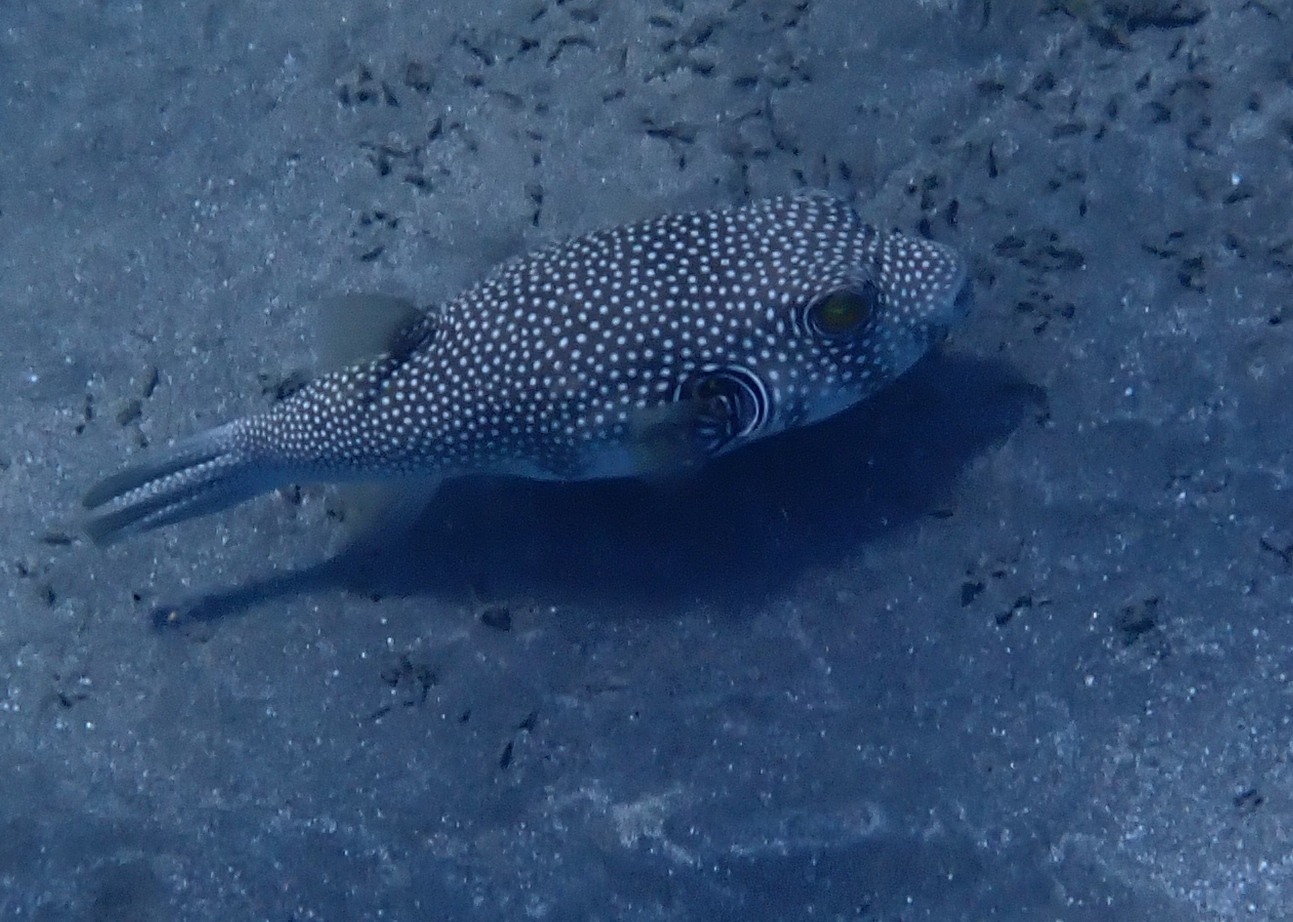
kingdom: Animalia
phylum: Chordata
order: Tetraodontiformes
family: Tetraodontidae
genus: Arothron
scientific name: Arothron hispidus
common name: Stripebelly puffer
